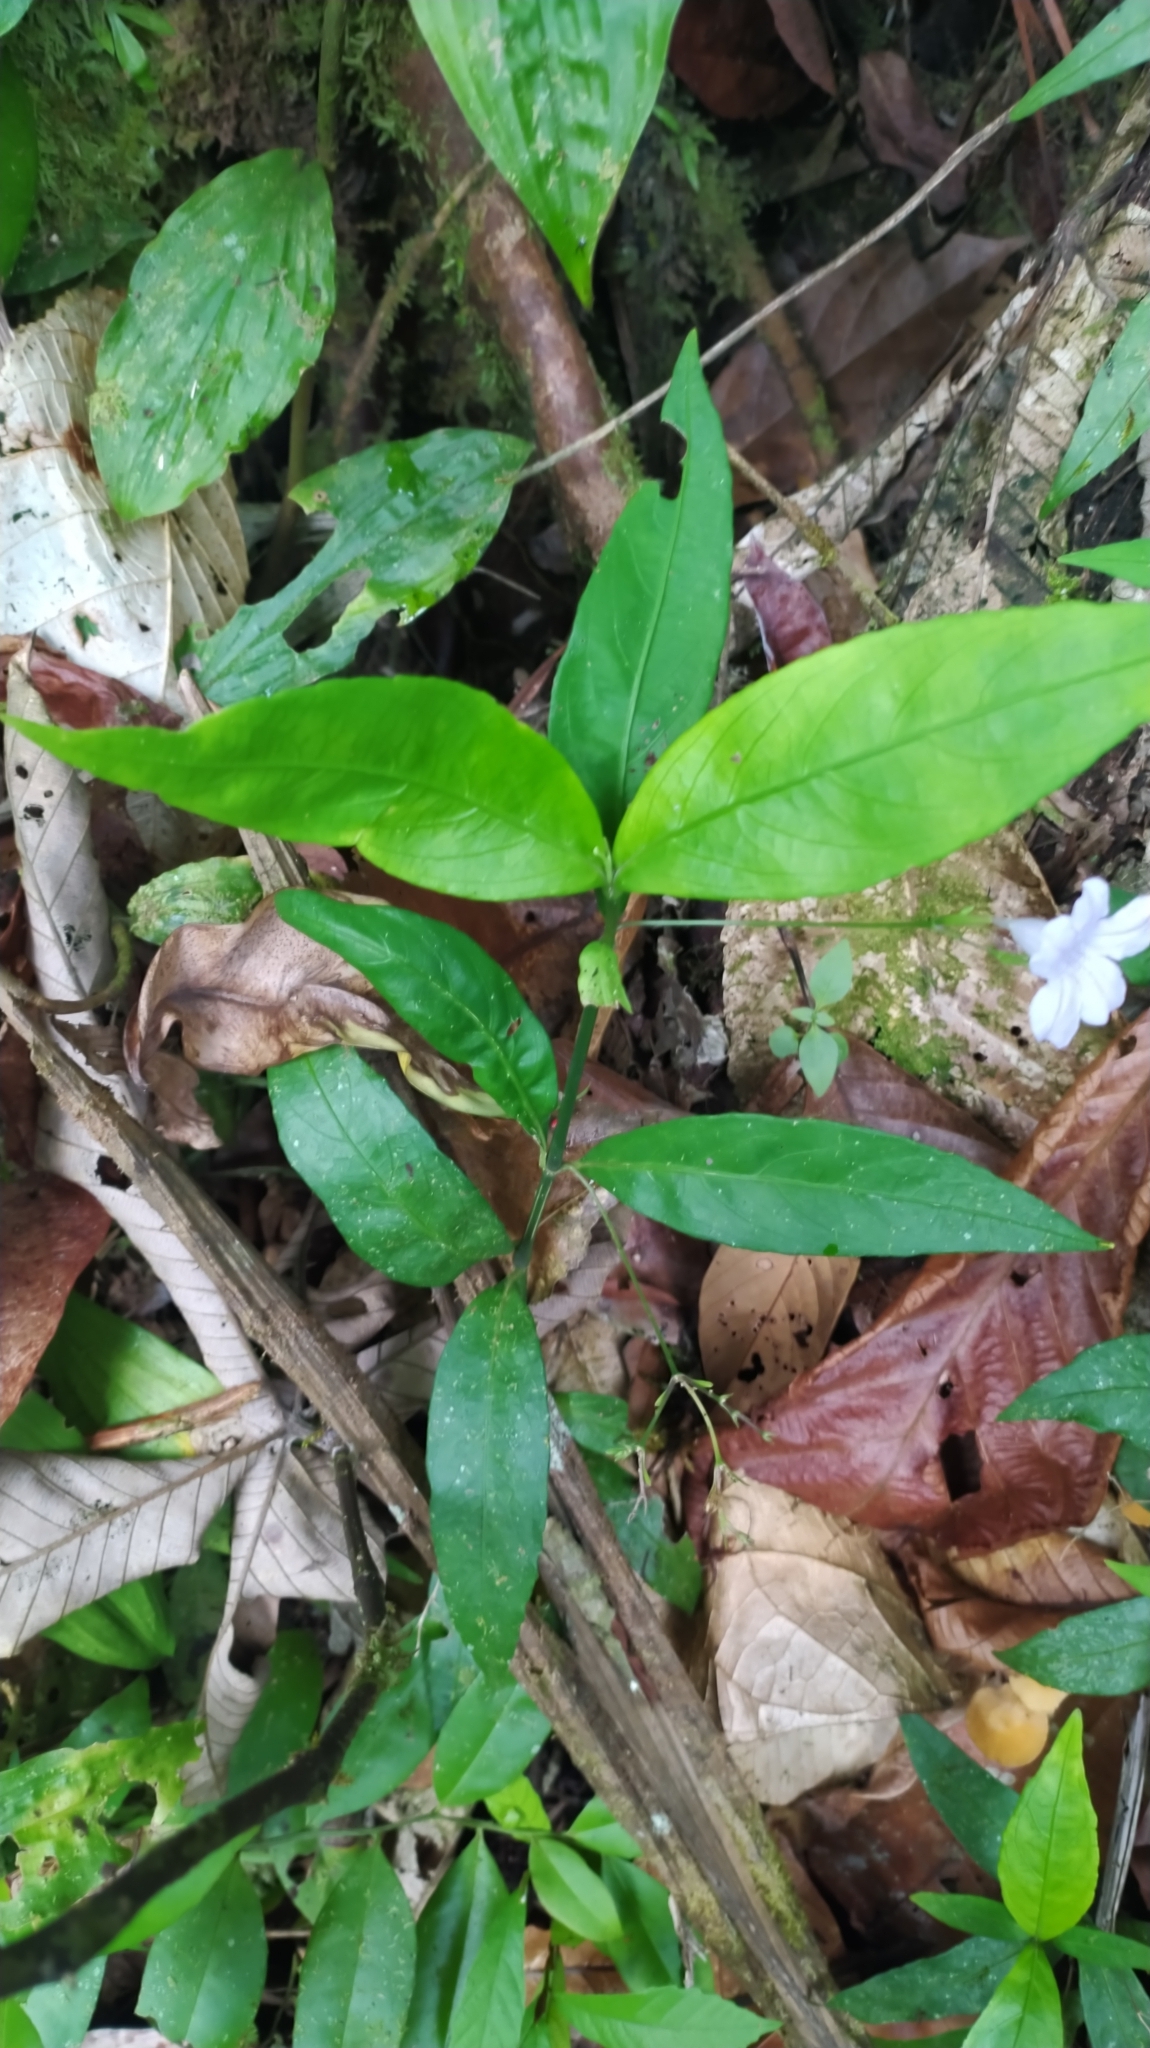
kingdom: Plantae
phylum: Tracheophyta
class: Magnoliopsida
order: Lamiales
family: Acanthaceae
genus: Ruellia
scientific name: Ruellia rubra
